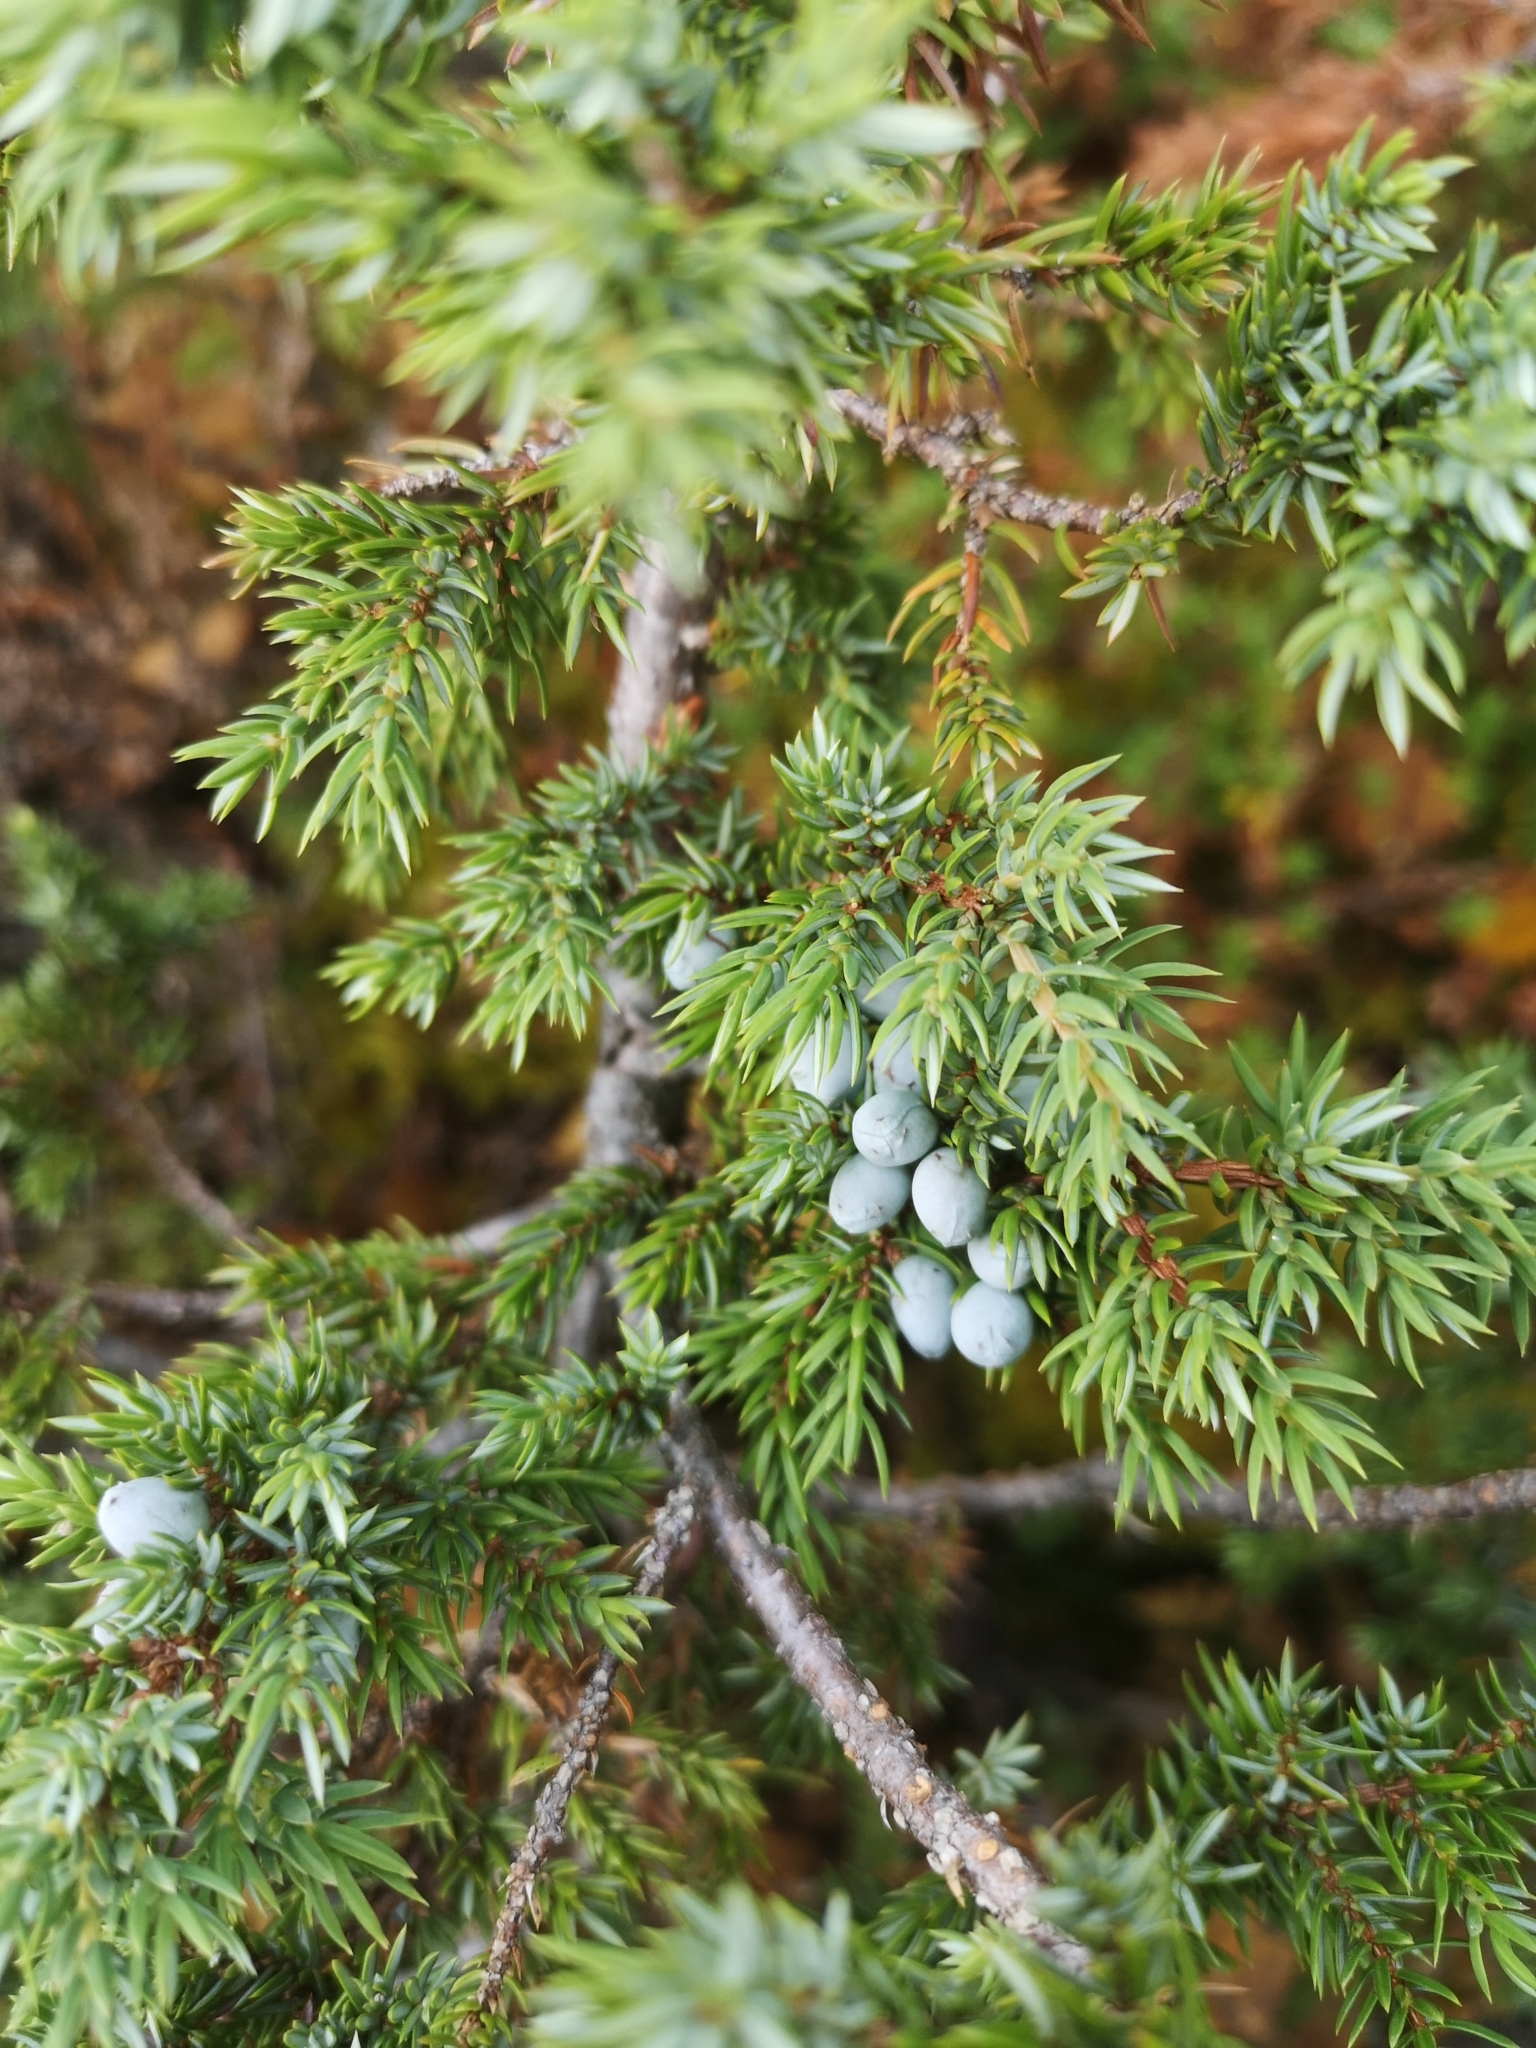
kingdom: Plantae
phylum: Tracheophyta
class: Pinopsida
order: Pinales
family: Cupressaceae
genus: Juniperus
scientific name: Juniperus communis
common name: Common juniper
